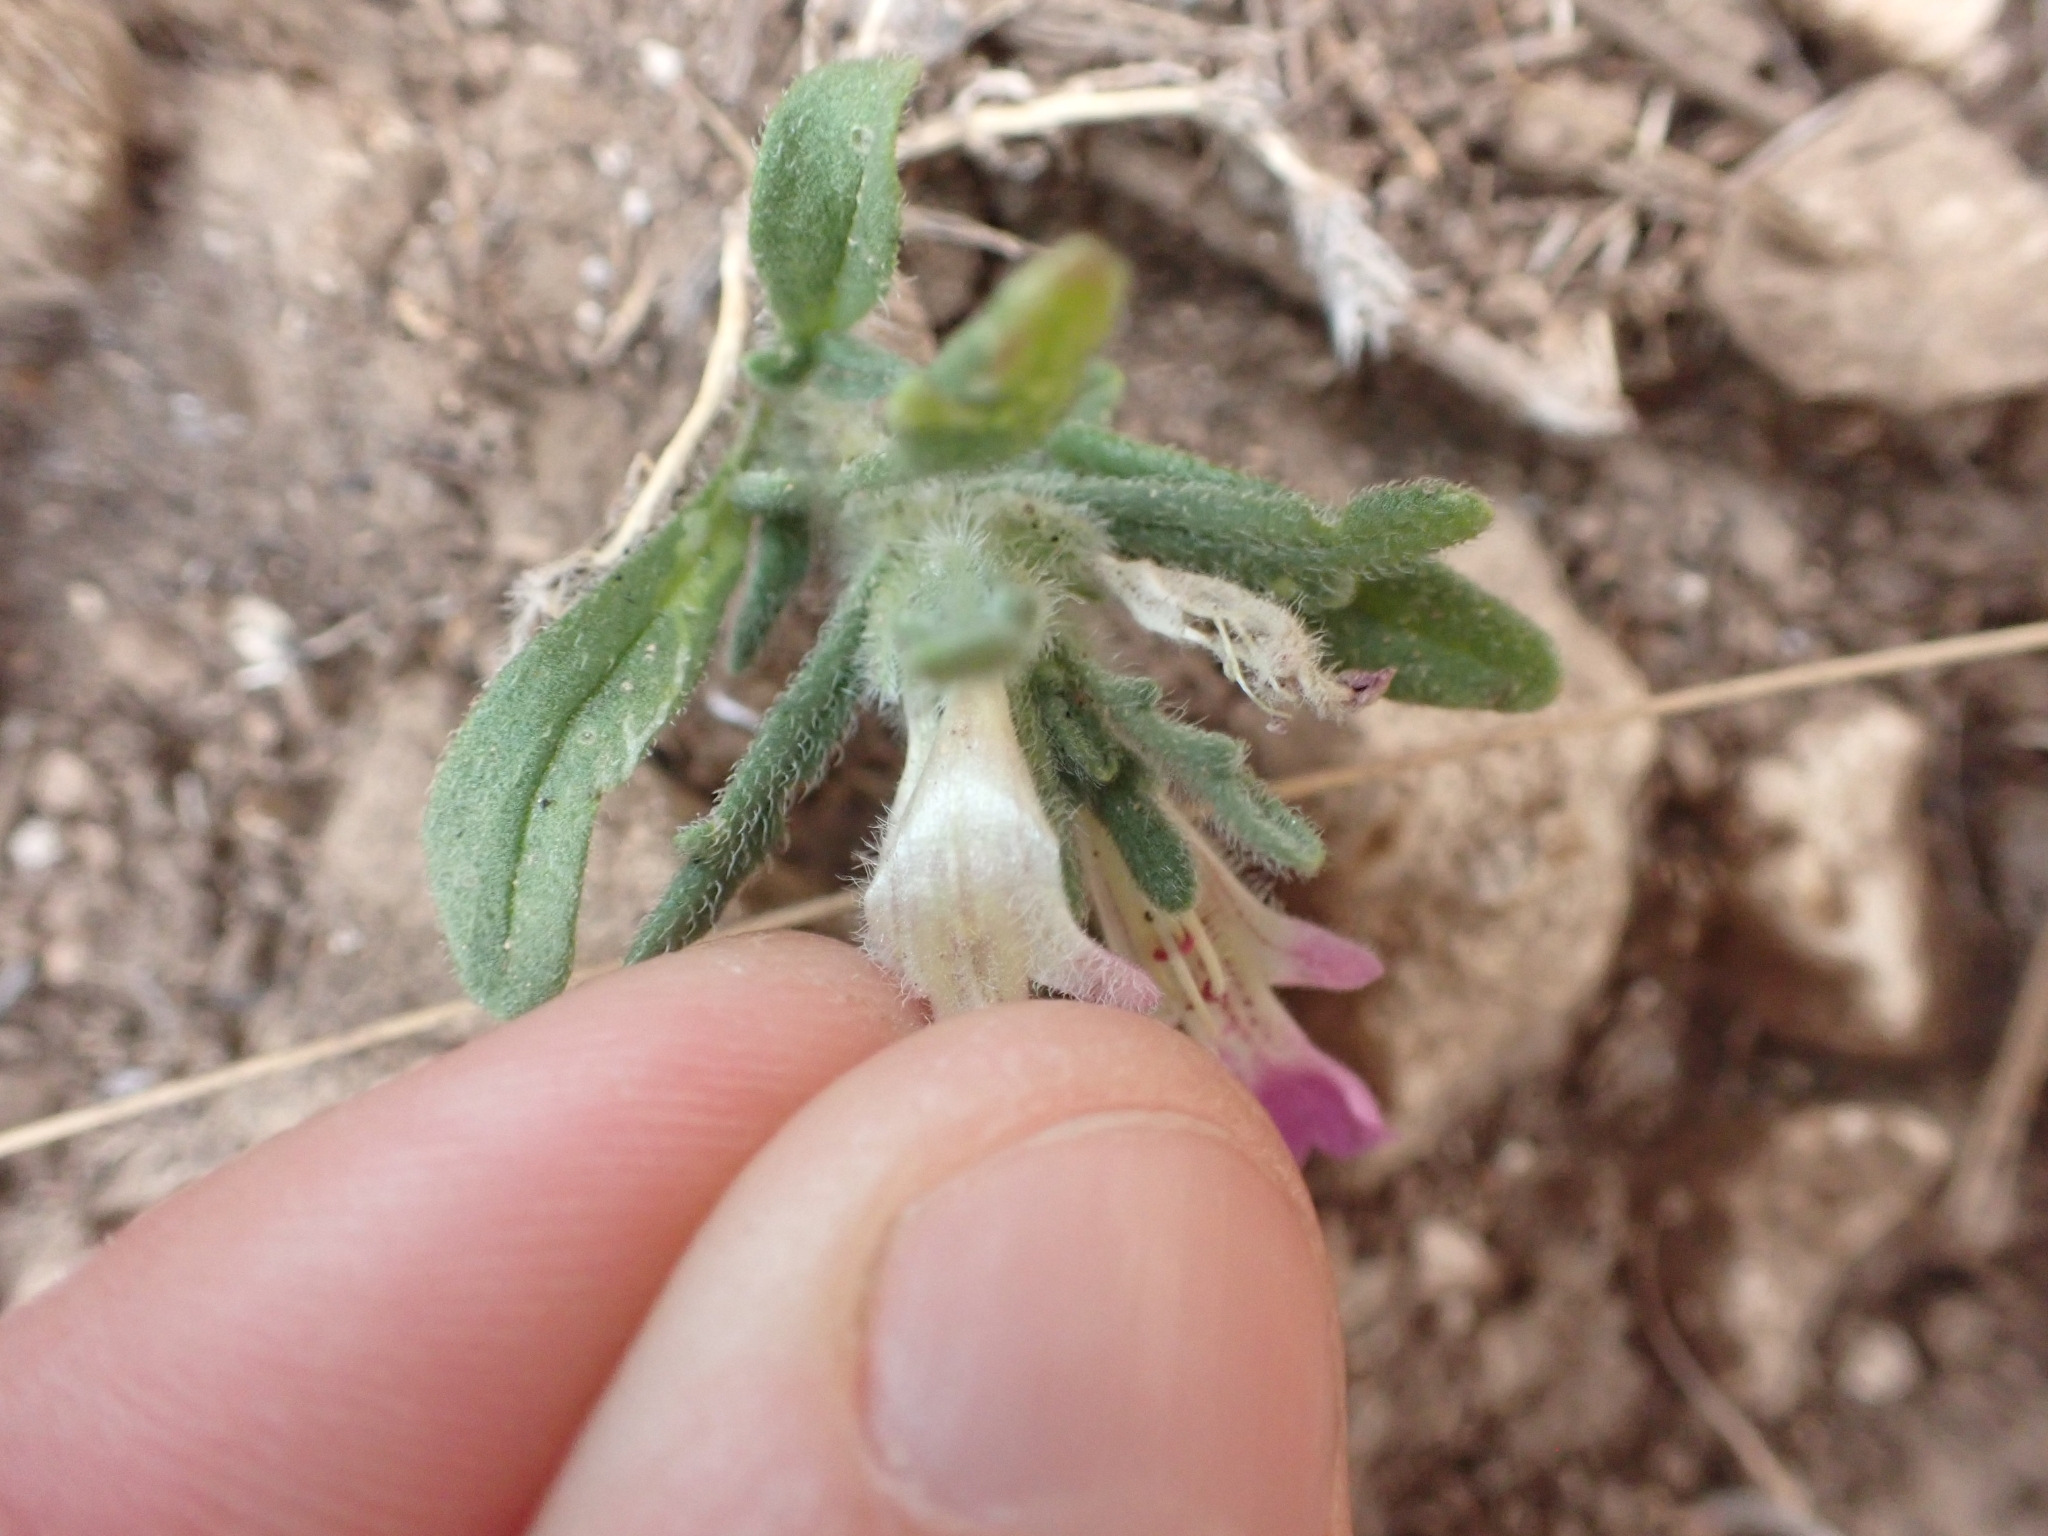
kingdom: Plantae
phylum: Tracheophyta
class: Magnoliopsida
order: Lamiales
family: Lamiaceae
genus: Ajuga
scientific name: Ajuga iva
